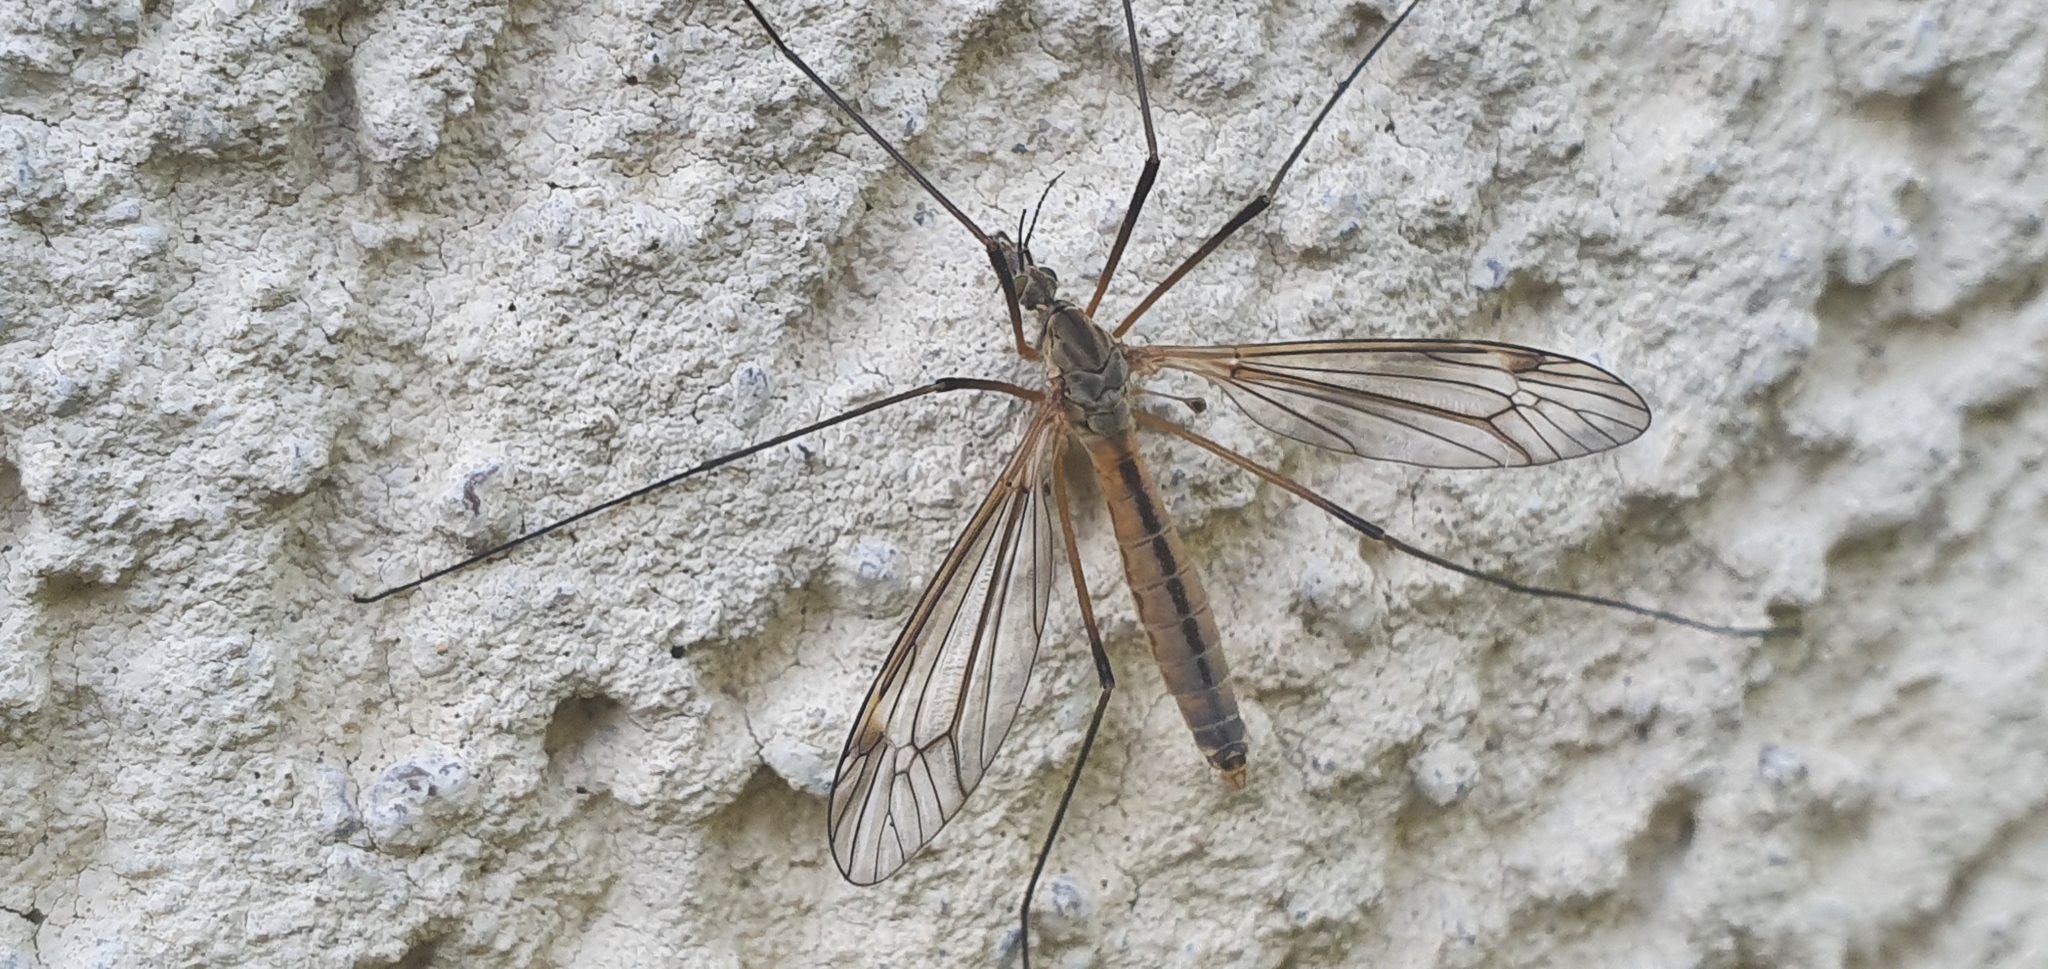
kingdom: Animalia
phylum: Arthropoda
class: Insecta
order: Diptera
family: Tipulidae
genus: Tipula
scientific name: Tipula vernalis
